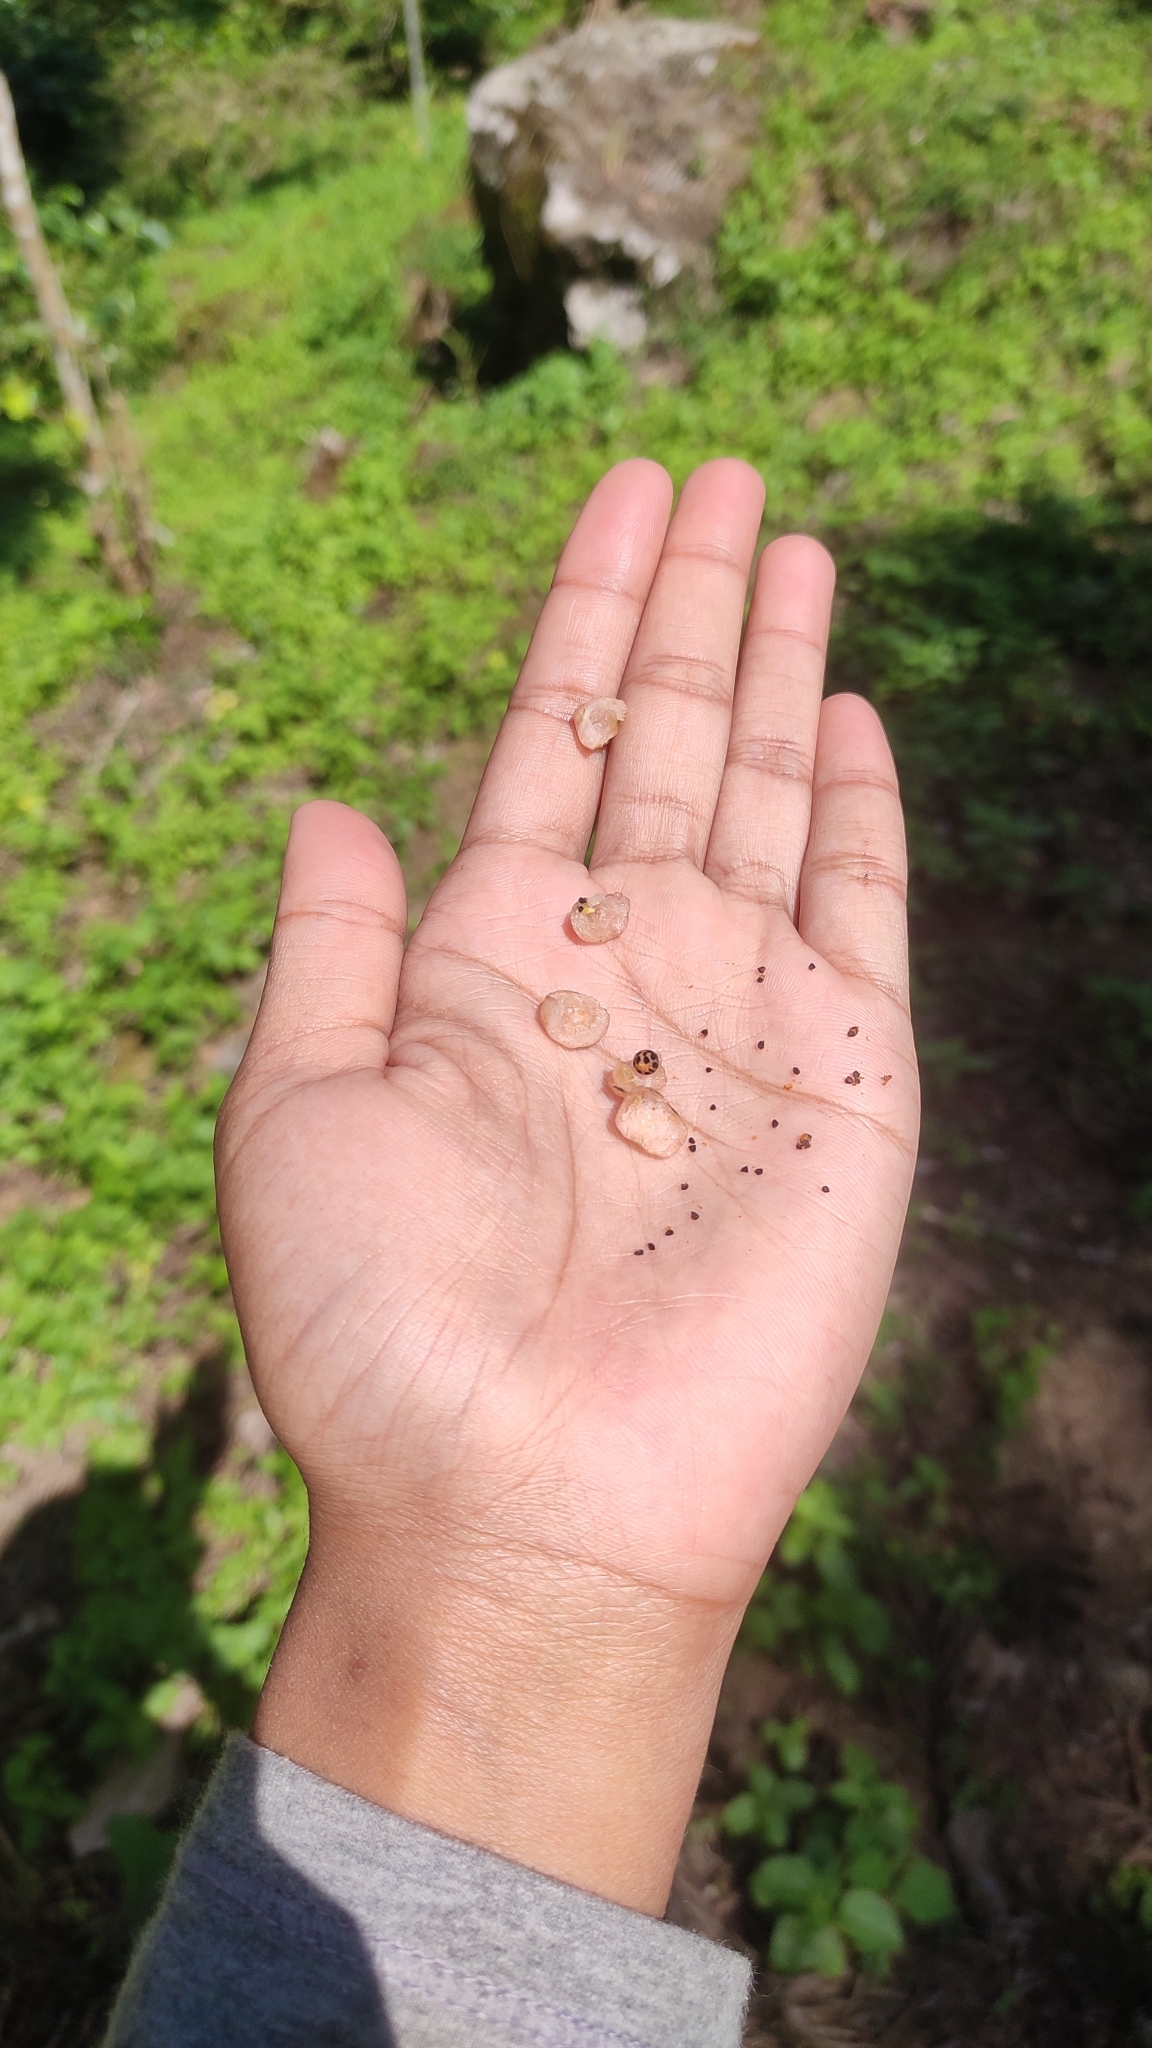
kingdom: Plantae
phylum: Tracheophyta
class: Magnoliopsida
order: Ericales
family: Primulaceae
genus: Maesa
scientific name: Maesa indica
